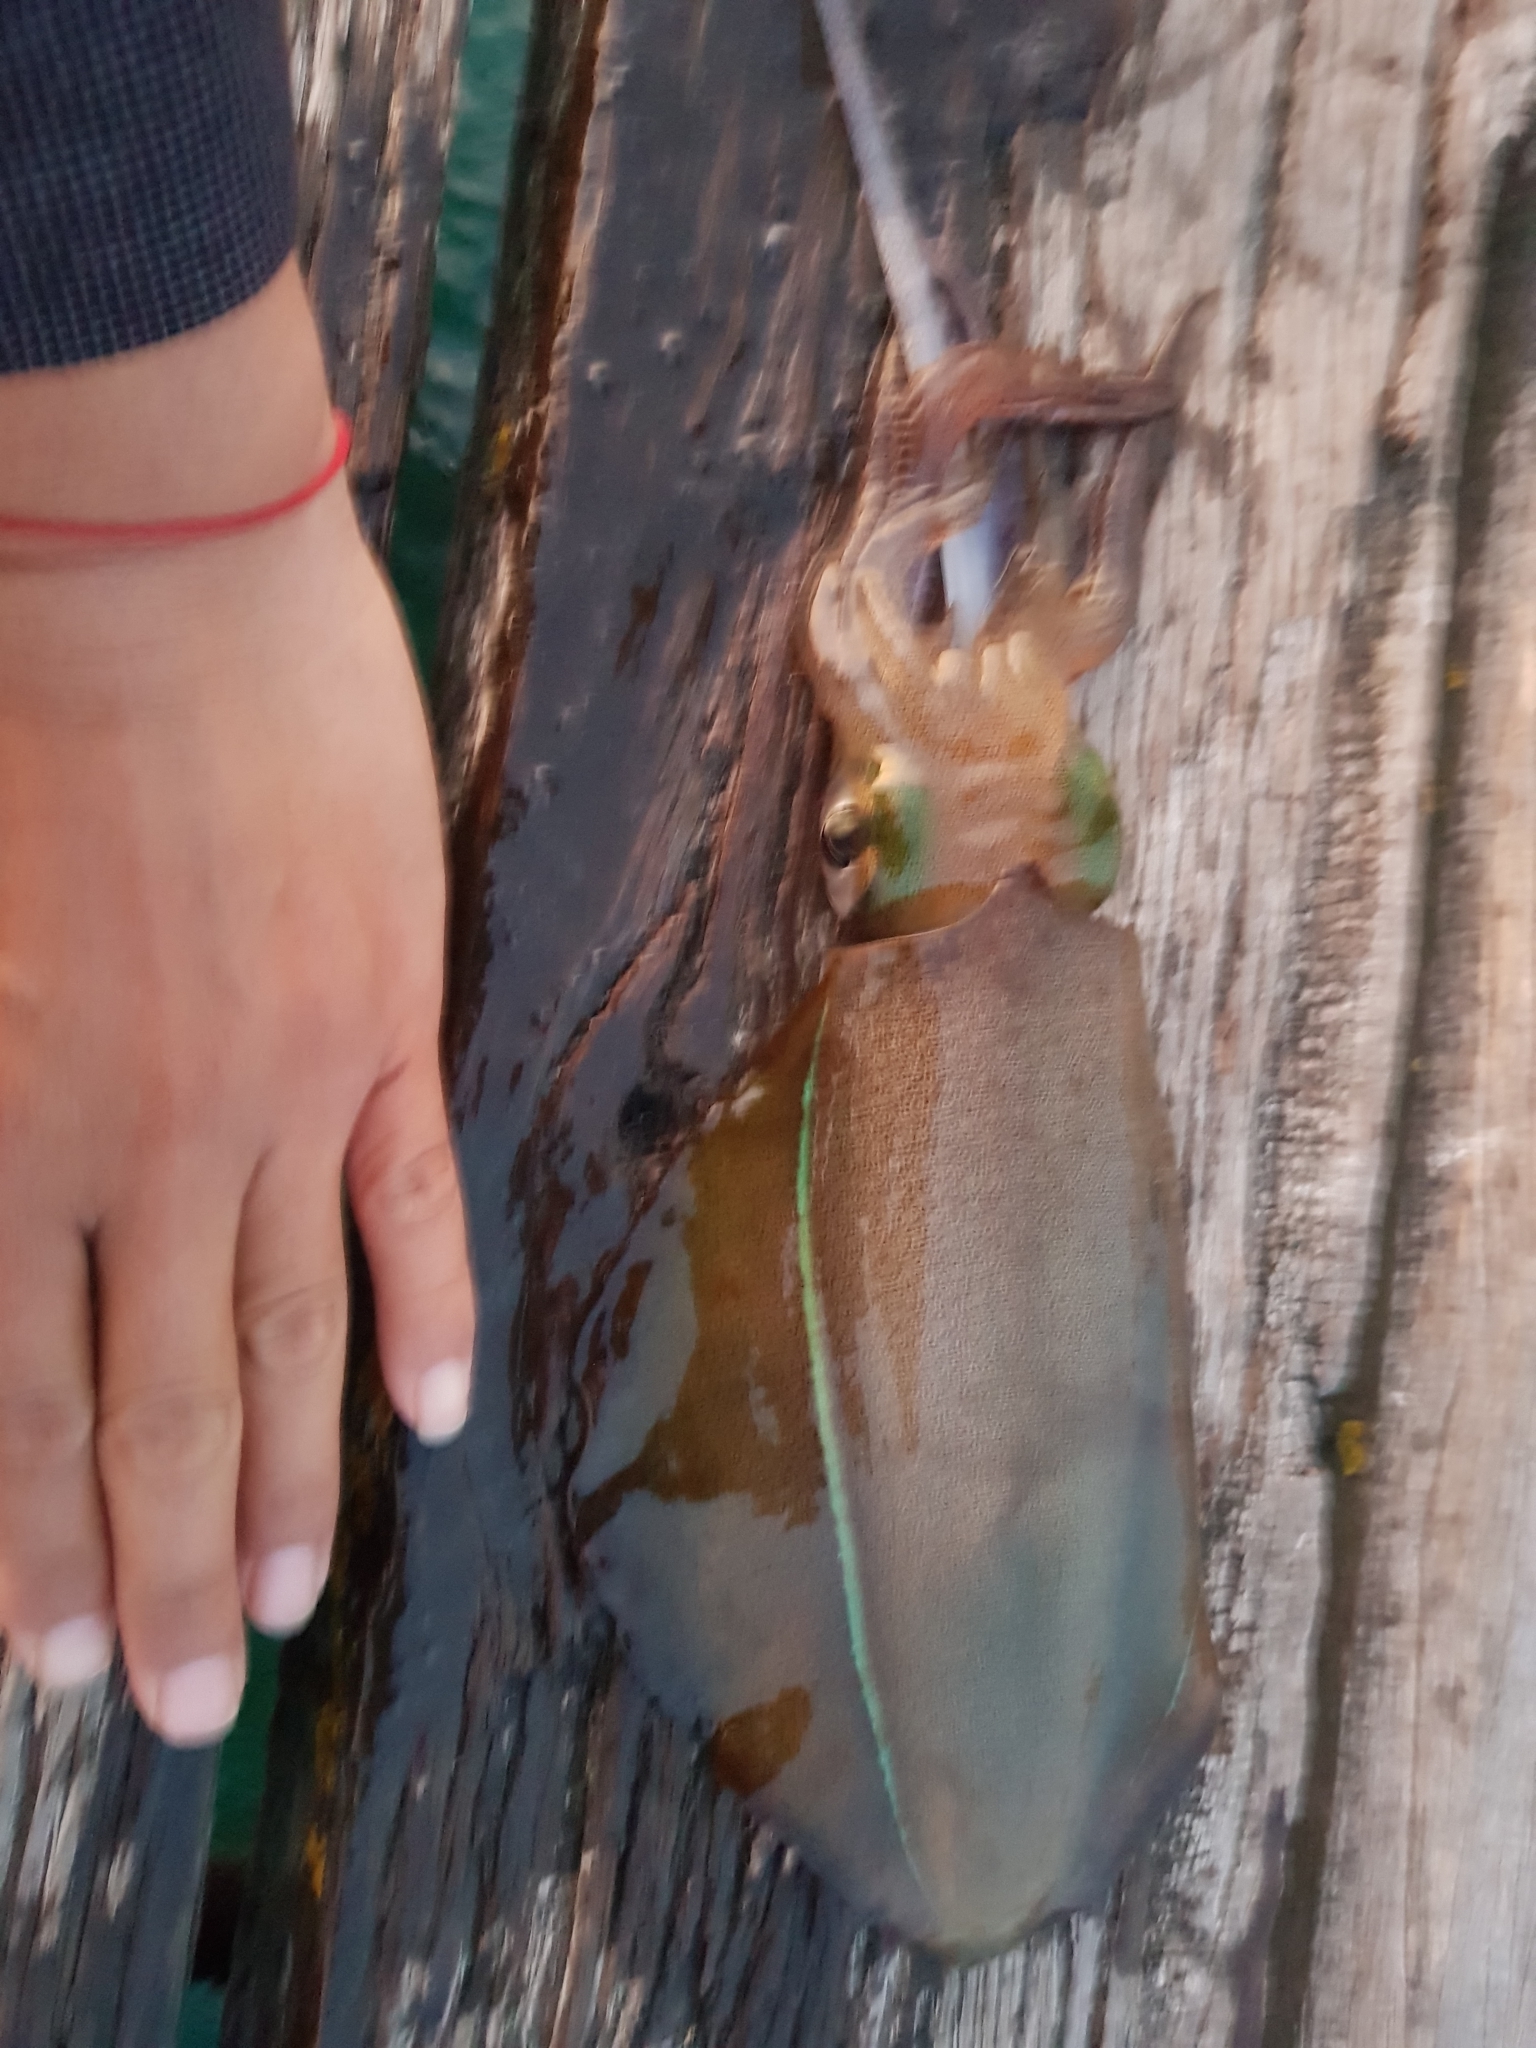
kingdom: Animalia
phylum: Mollusca
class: Cephalopoda
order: Myopsida
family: Loliginidae
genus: Sepioteuthis
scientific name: Sepioteuthis australis
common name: Southern reef squid
